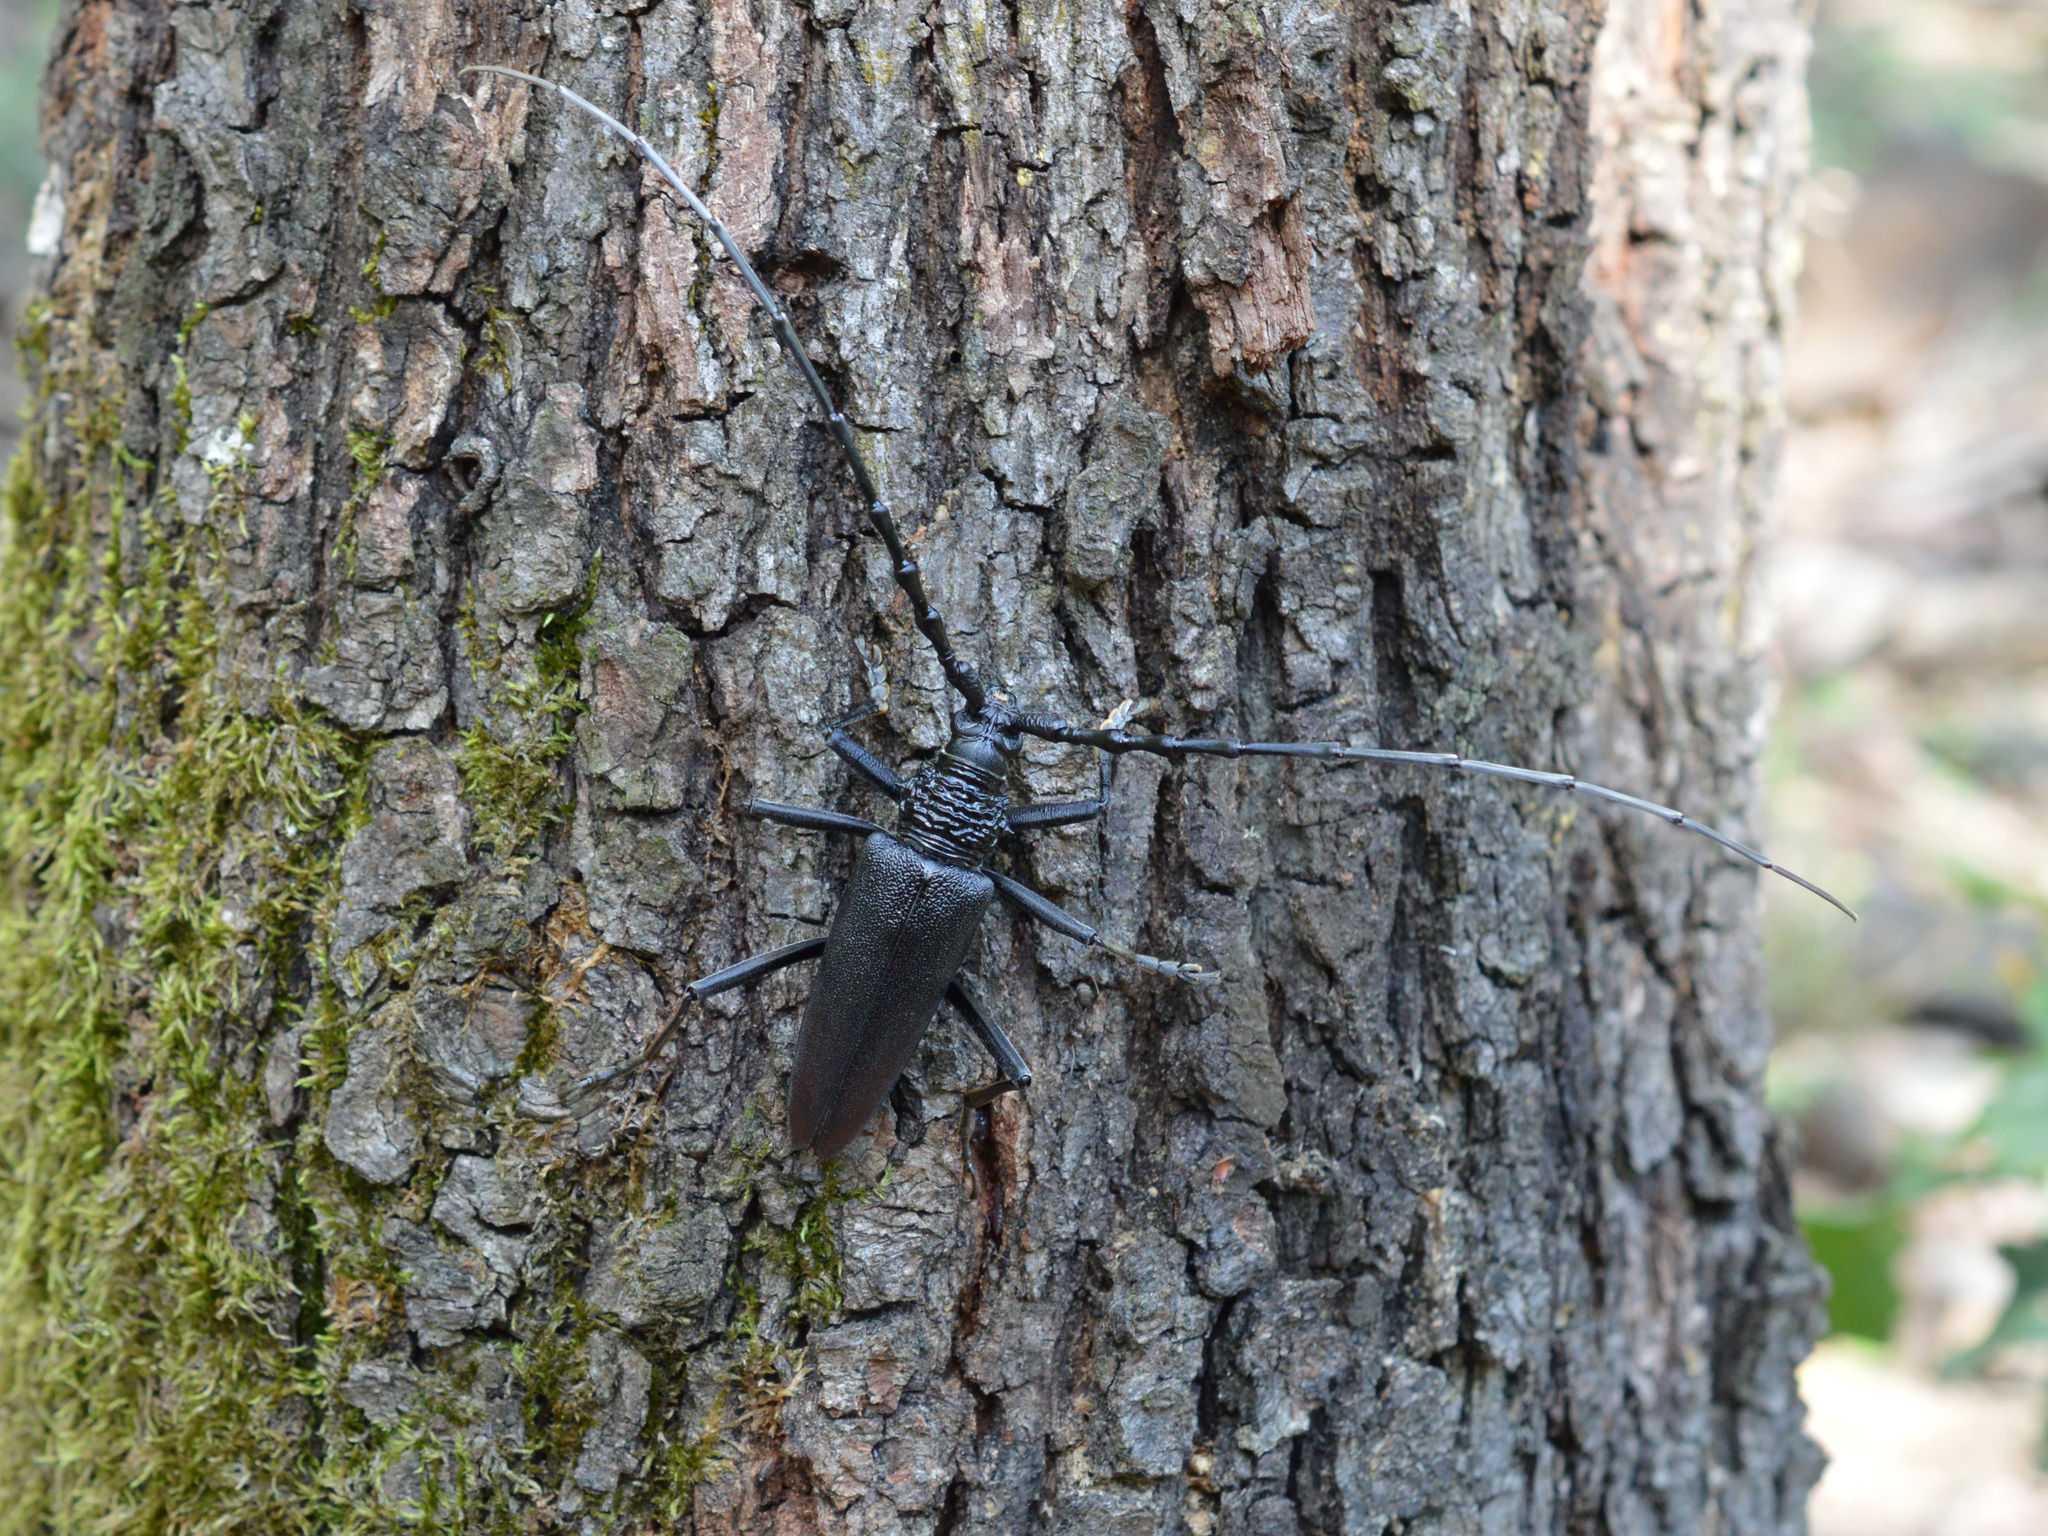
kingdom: Animalia
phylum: Arthropoda
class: Insecta
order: Coleoptera
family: Cerambycidae
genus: Cerambyx
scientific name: Cerambyx cerdo
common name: Cerambyx longicorn
